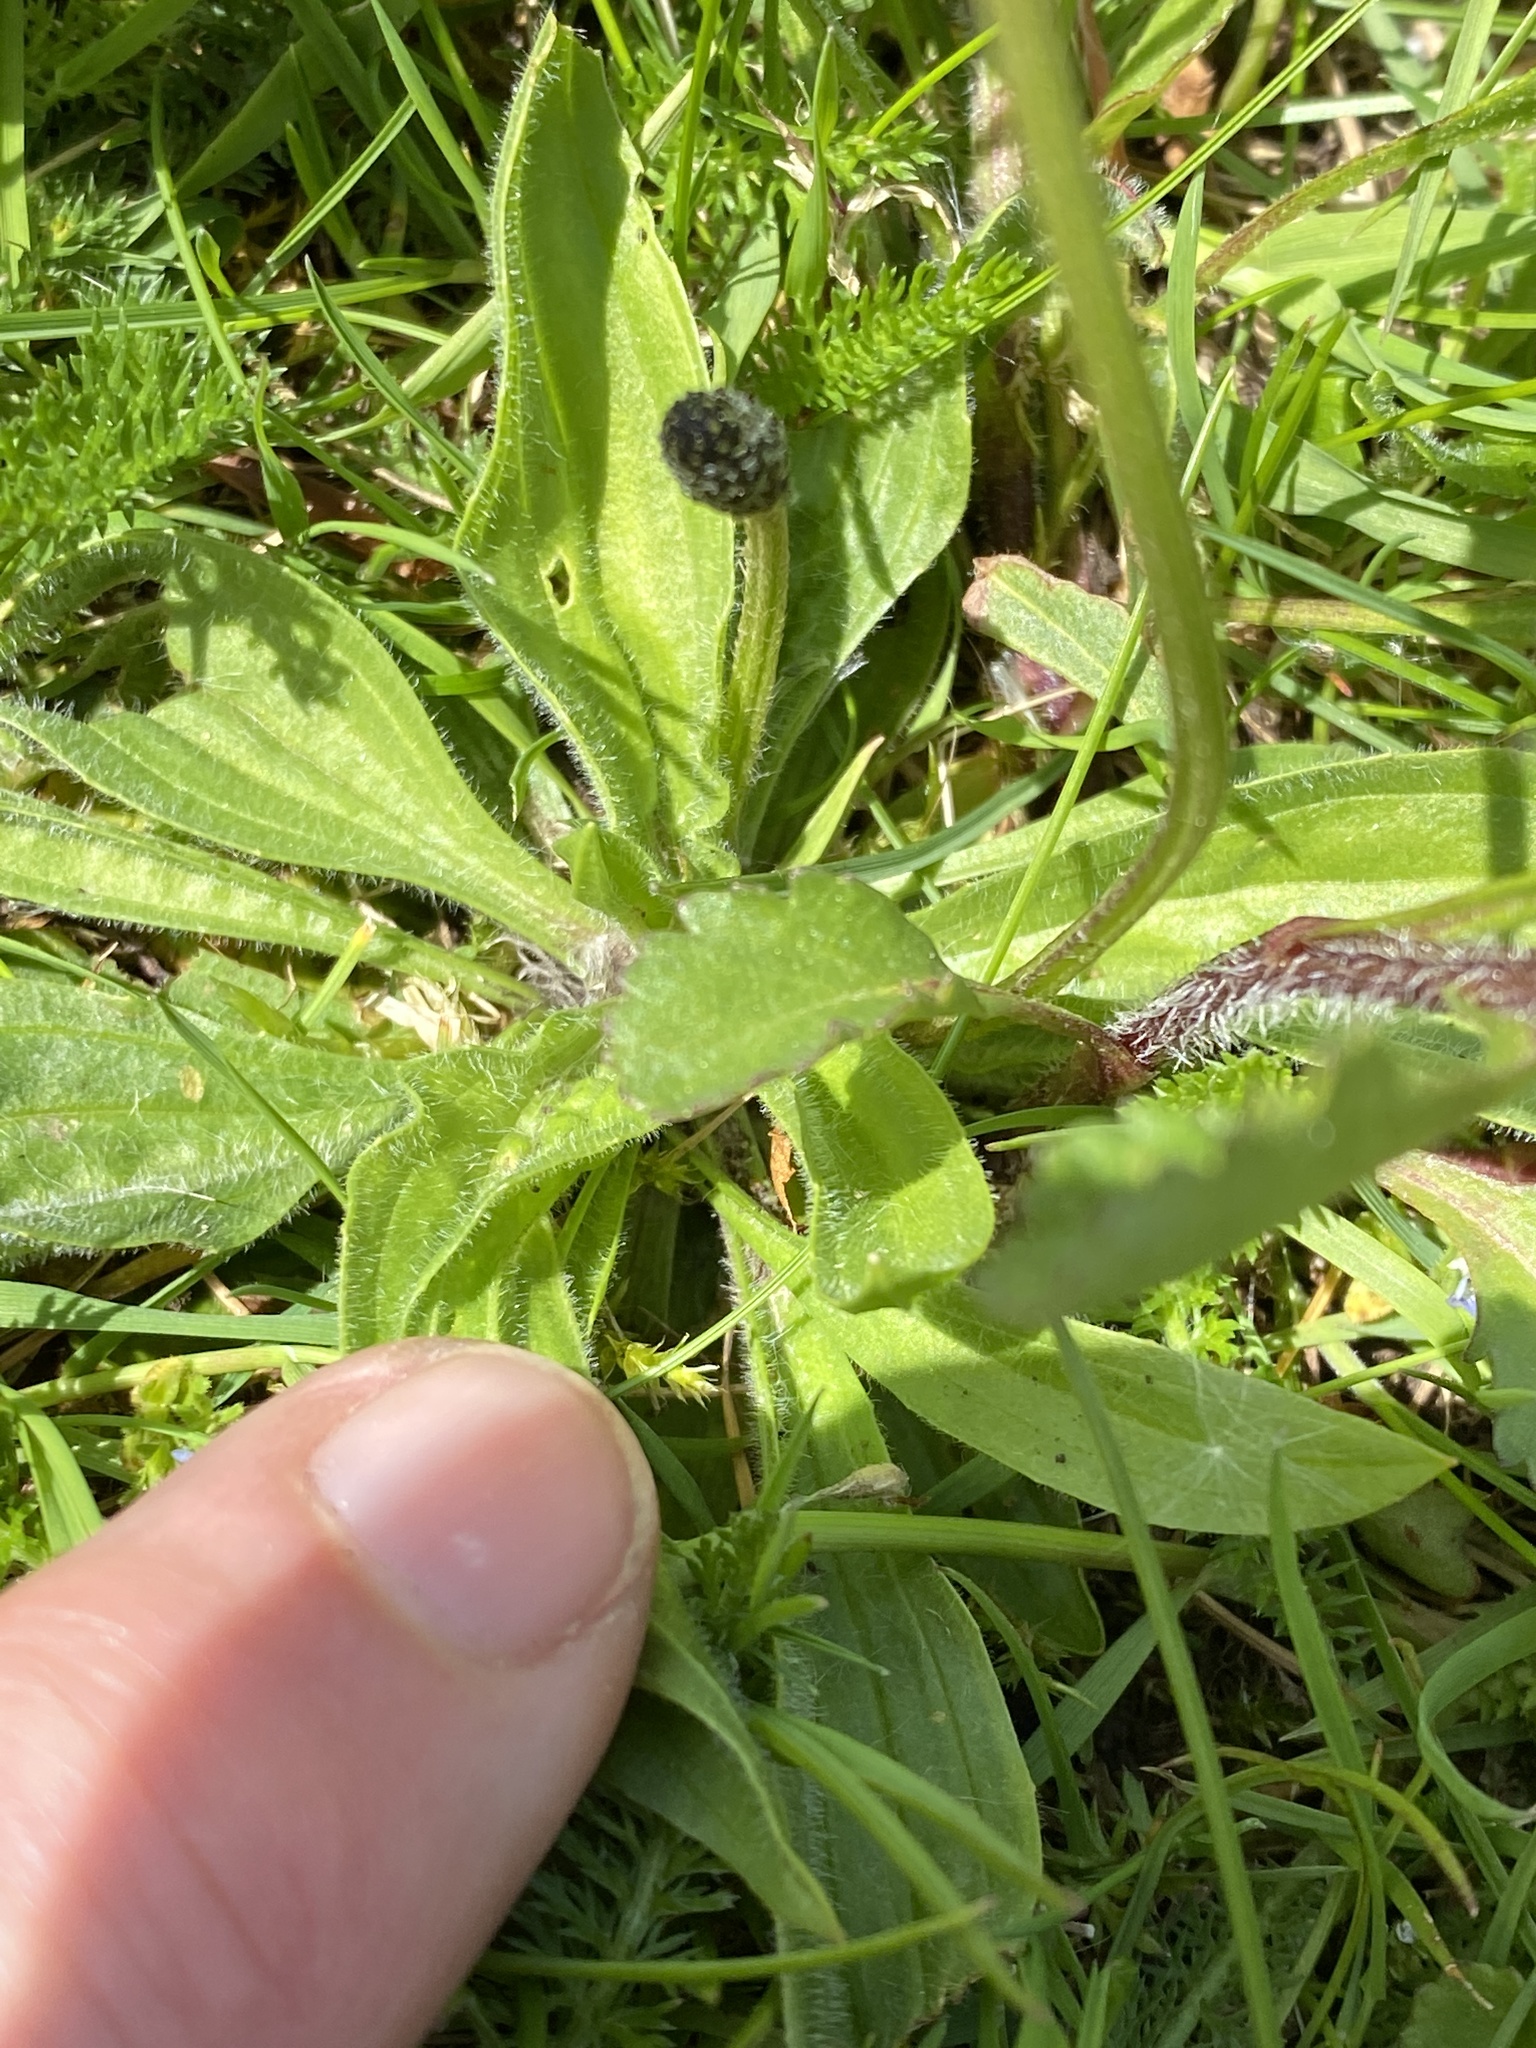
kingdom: Plantae
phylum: Tracheophyta
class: Magnoliopsida
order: Lamiales
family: Plantaginaceae
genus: Plantago
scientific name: Plantago lanceolata
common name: Ribwort plantain
